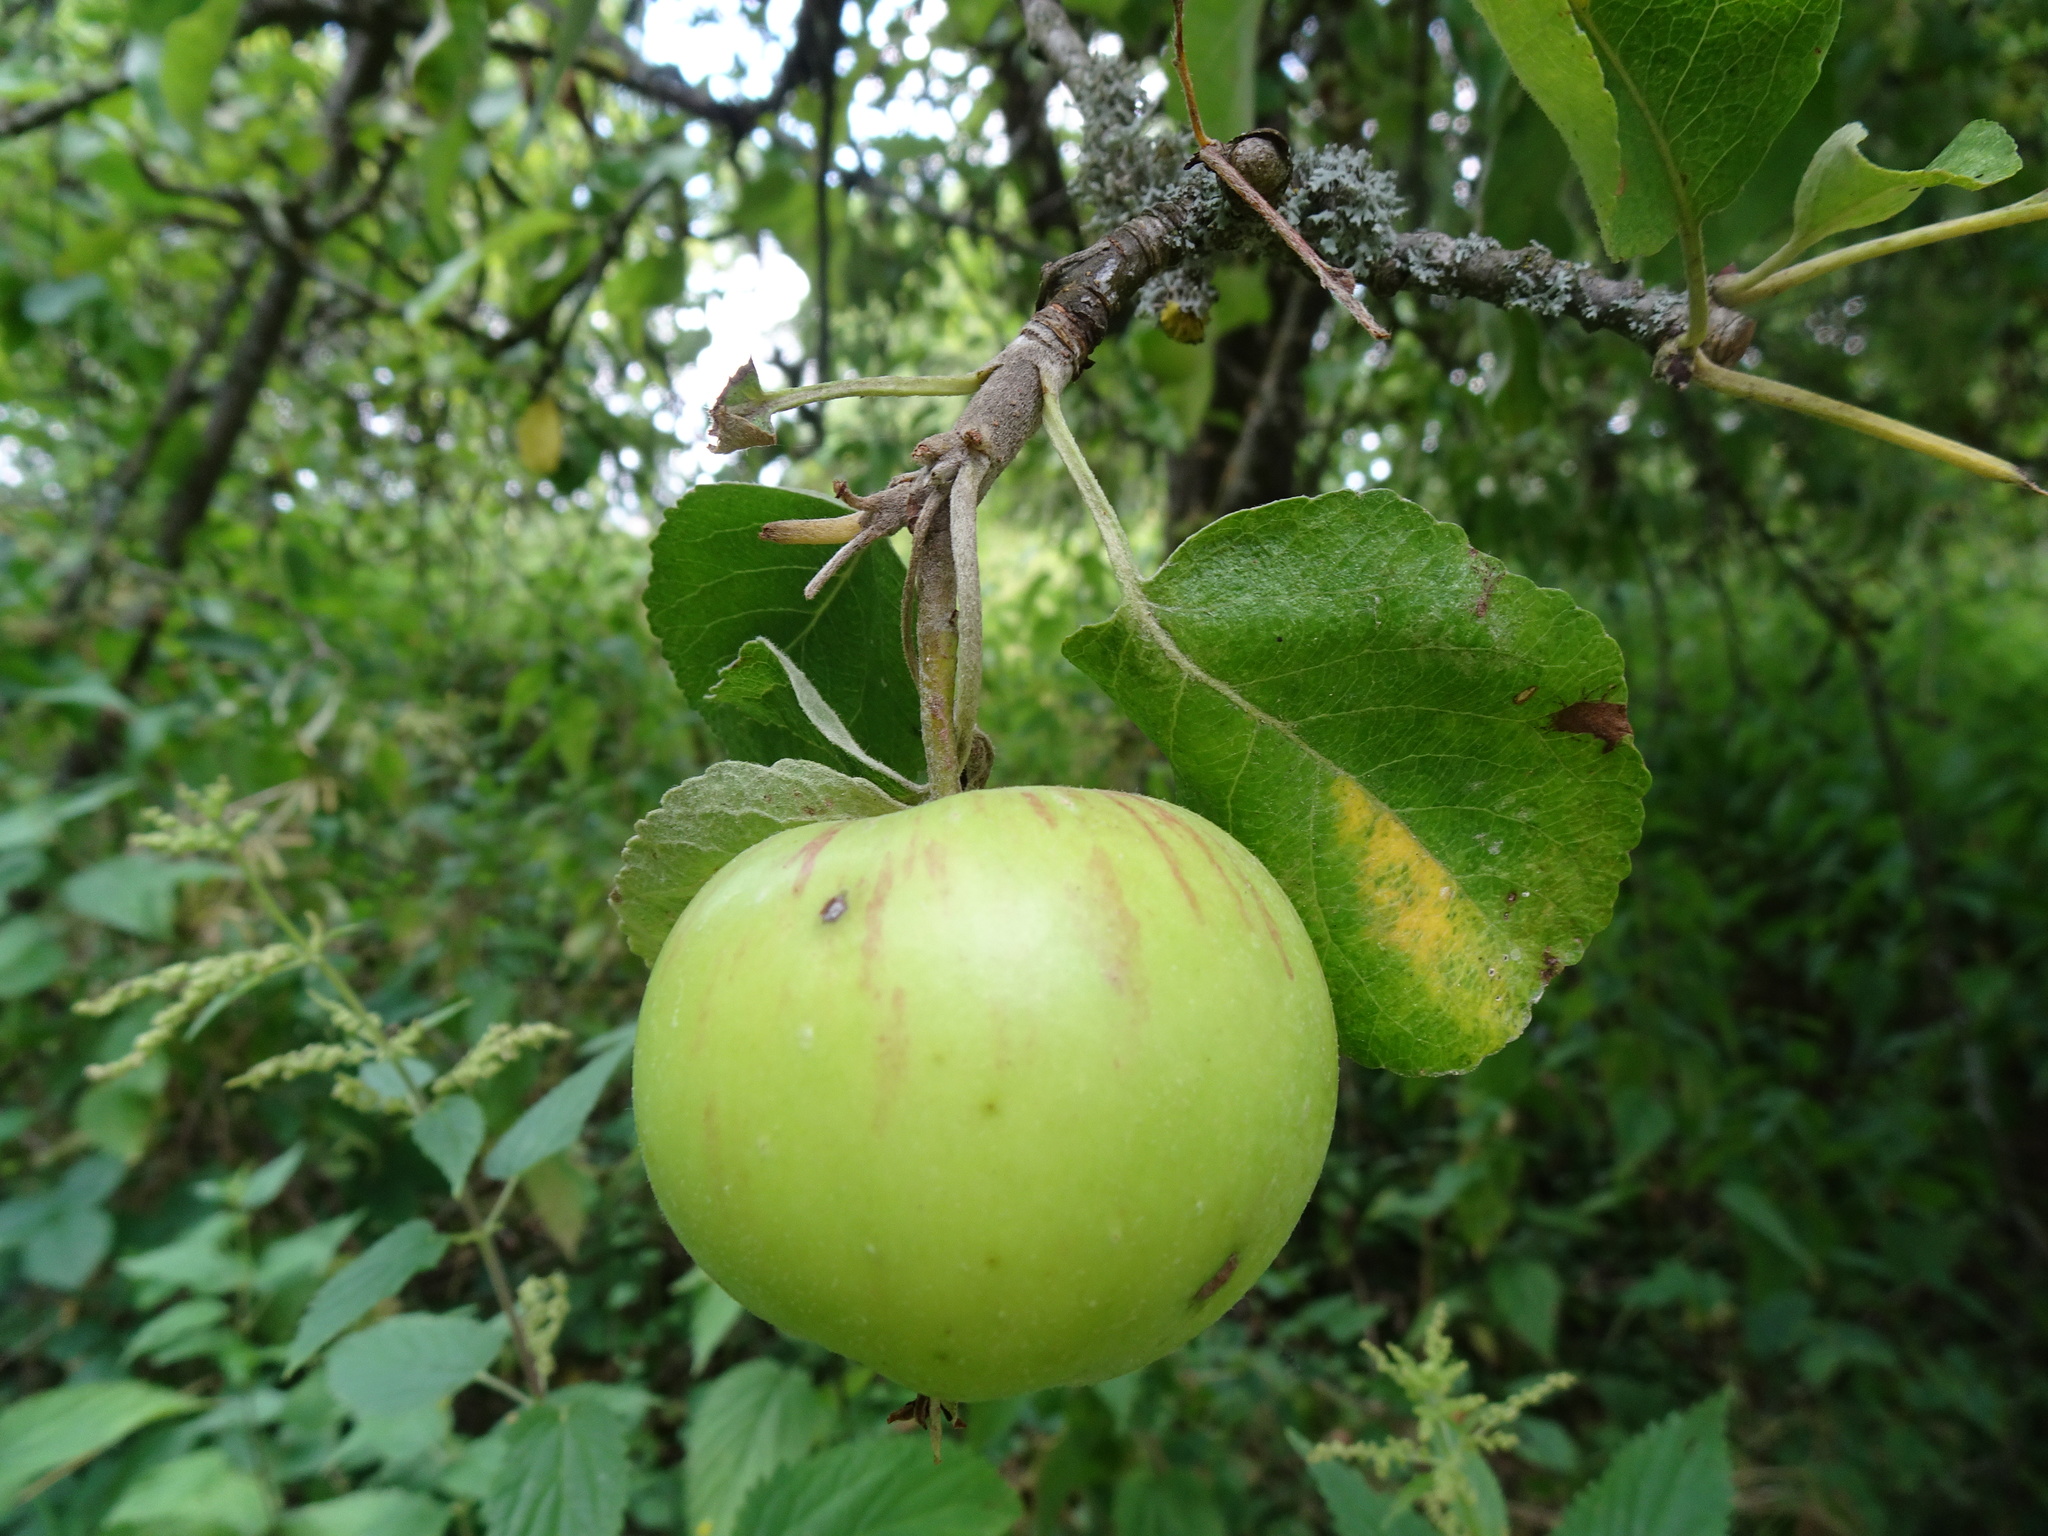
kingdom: Plantae
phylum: Tracheophyta
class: Magnoliopsida
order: Rosales
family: Rosaceae
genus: Malus
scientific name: Malus domestica
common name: Apple
